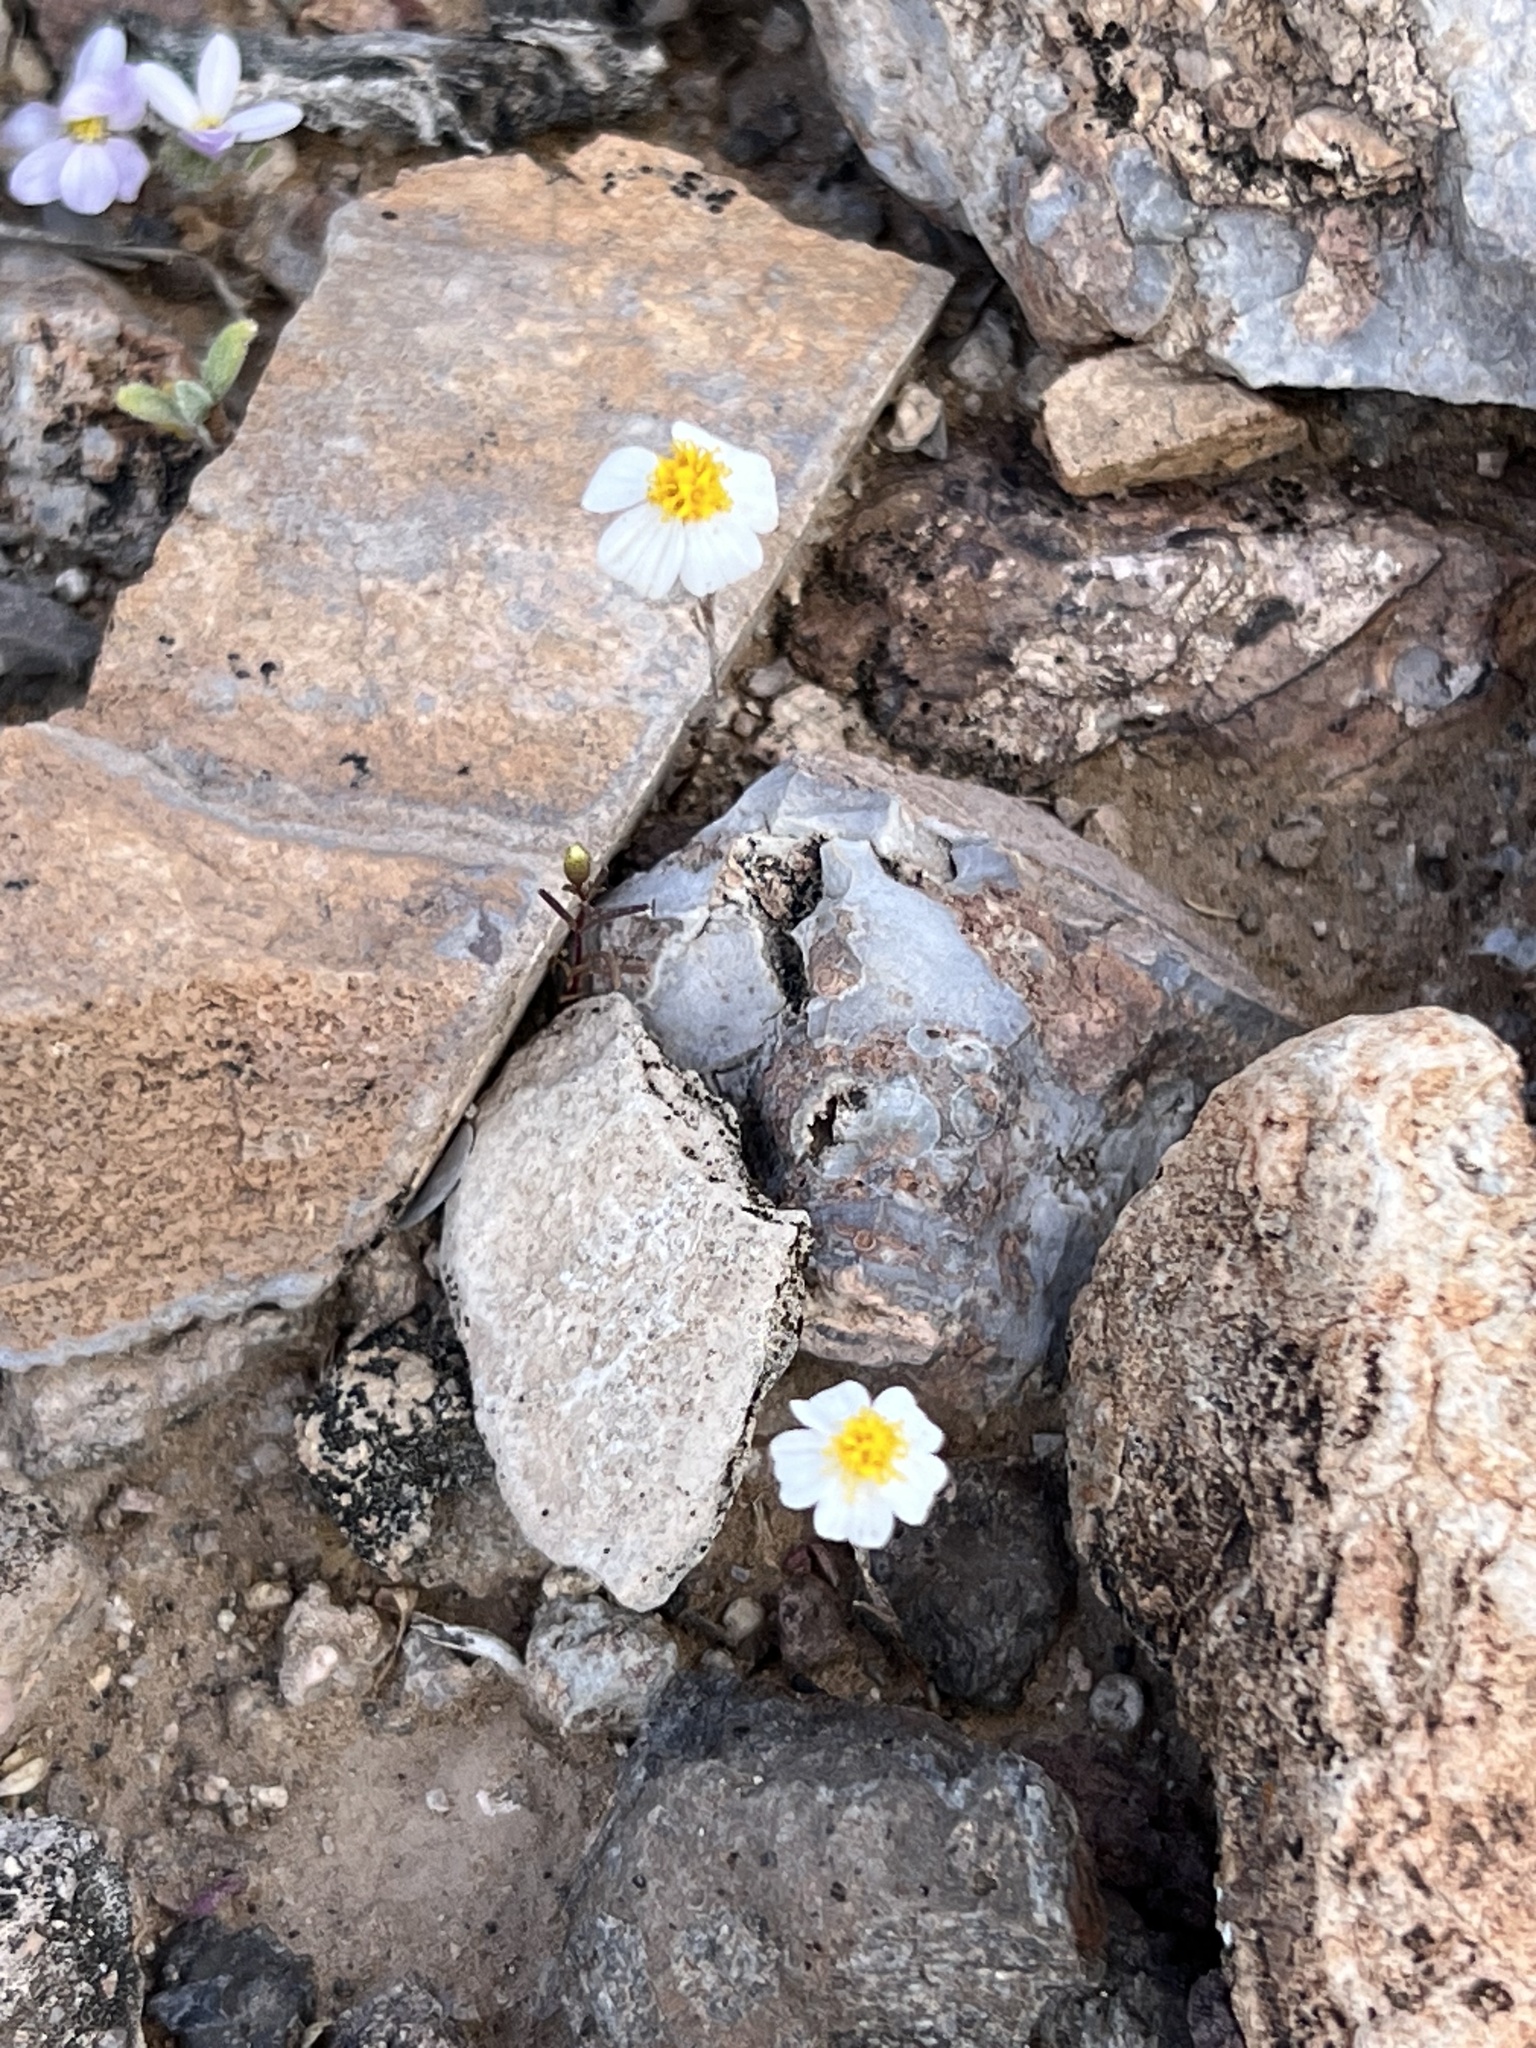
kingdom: Plantae
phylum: Tracheophyta
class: Magnoliopsida
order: Asterales
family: Asteraceae
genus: Eriophyllum
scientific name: Eriophyllum lanosum
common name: White easter-bonnets
